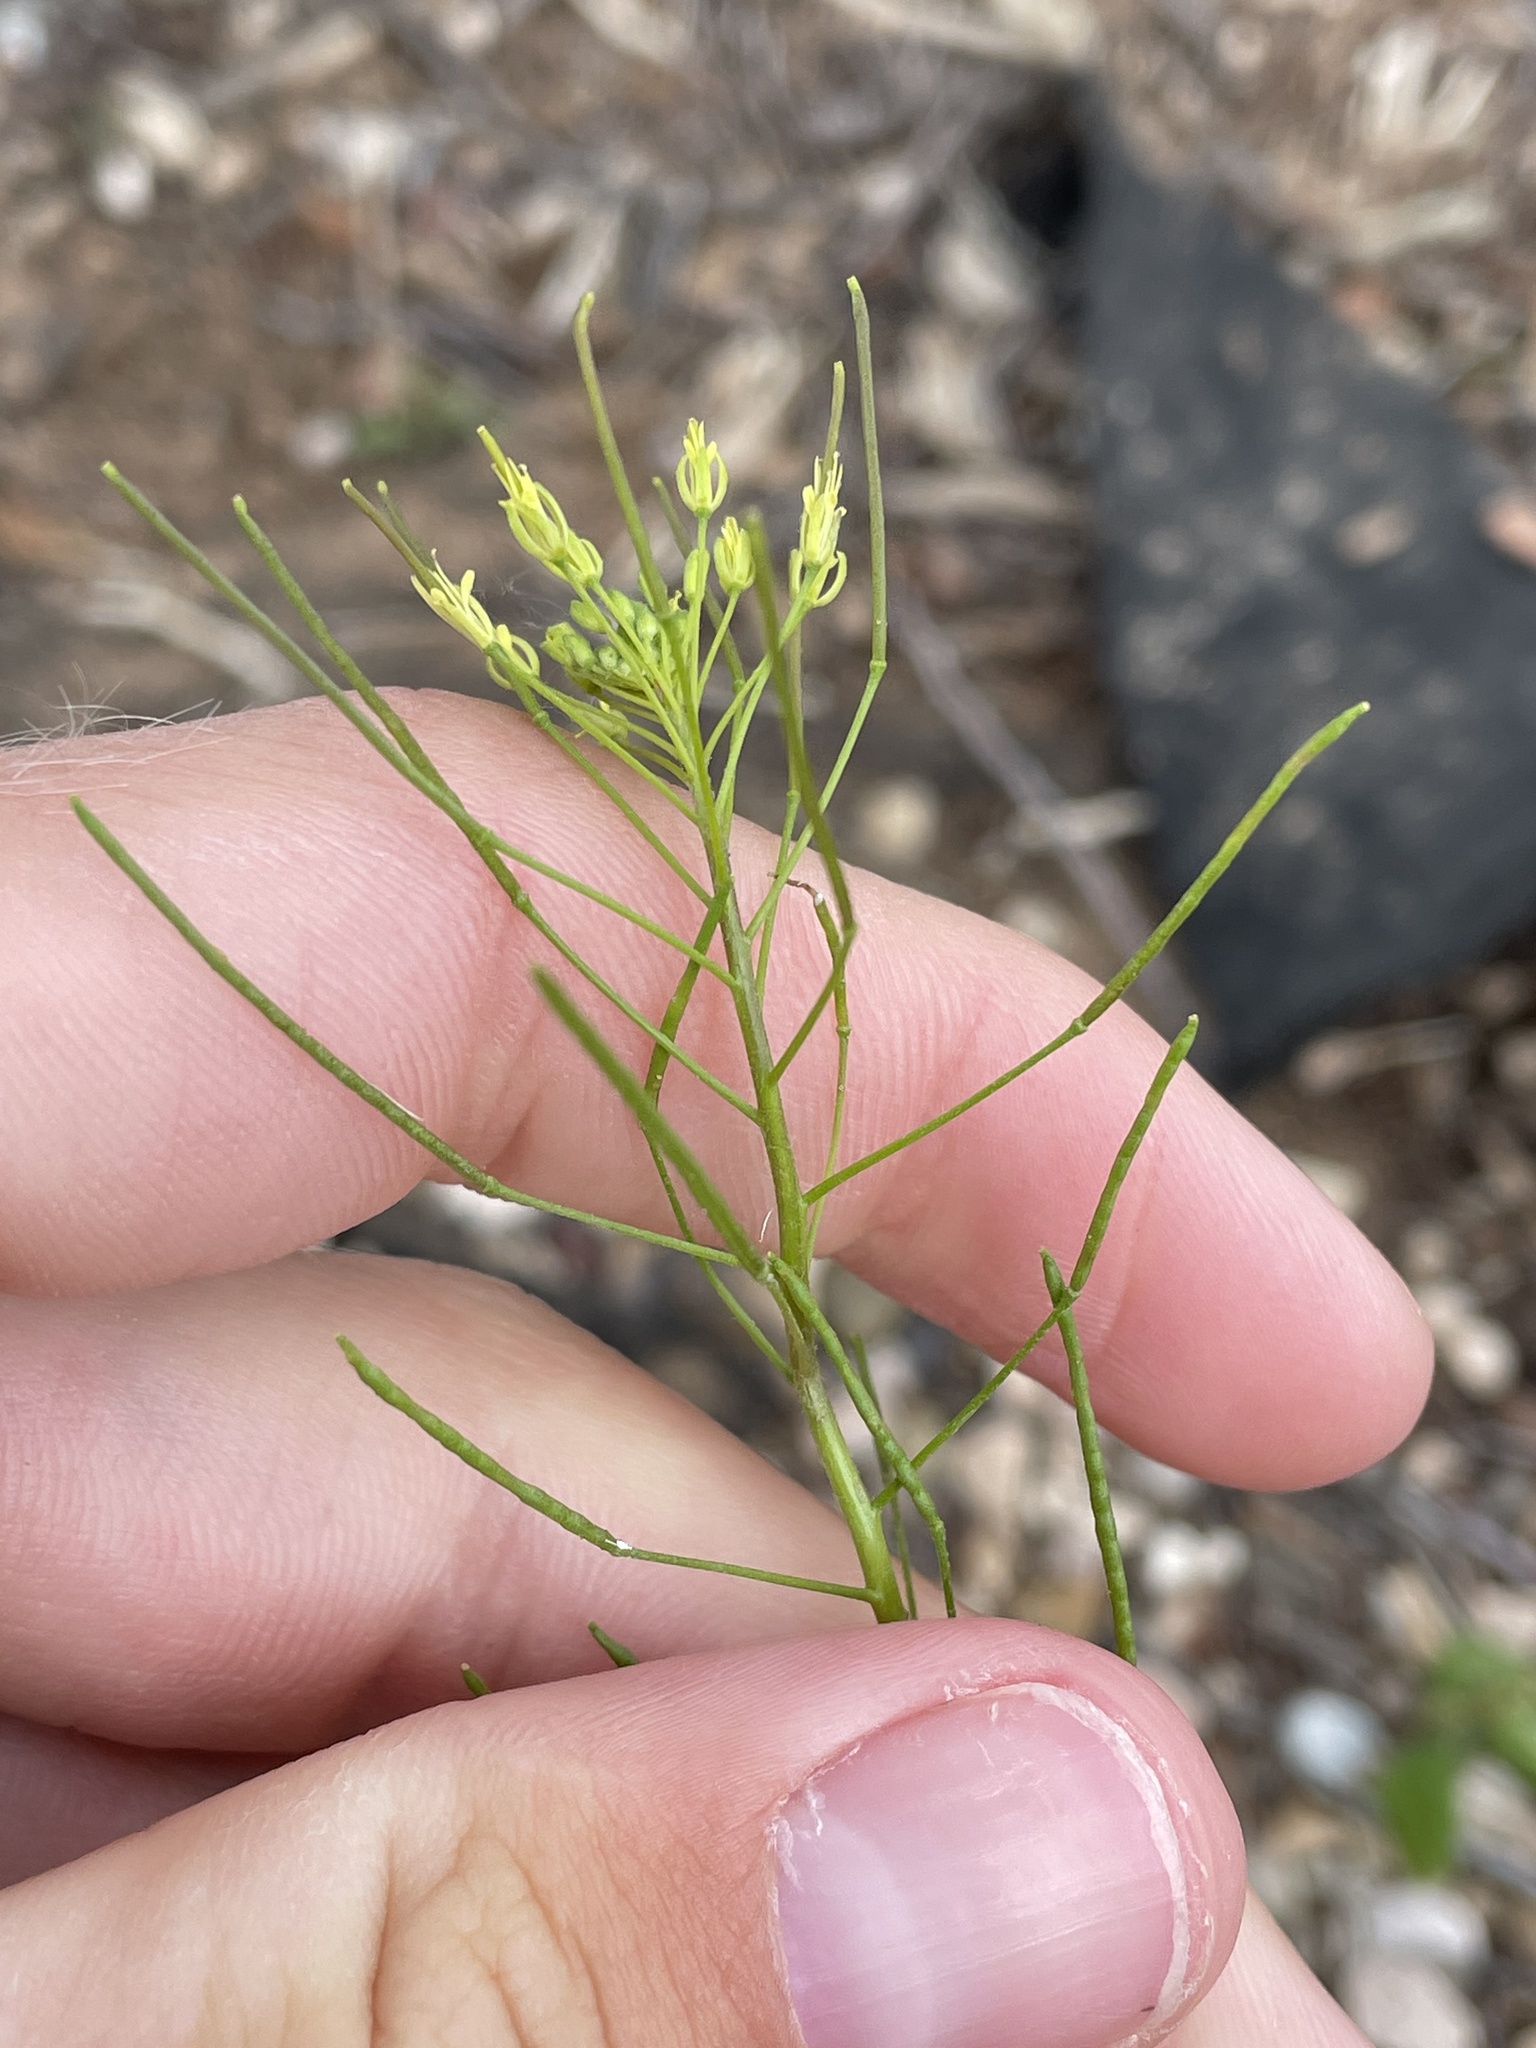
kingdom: Plantae
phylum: Tracheophyta
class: Magnoliopsida
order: Brassicales
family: Brassicaceae
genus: Descurainia
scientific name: Descurainia sophia
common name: Flixweed
